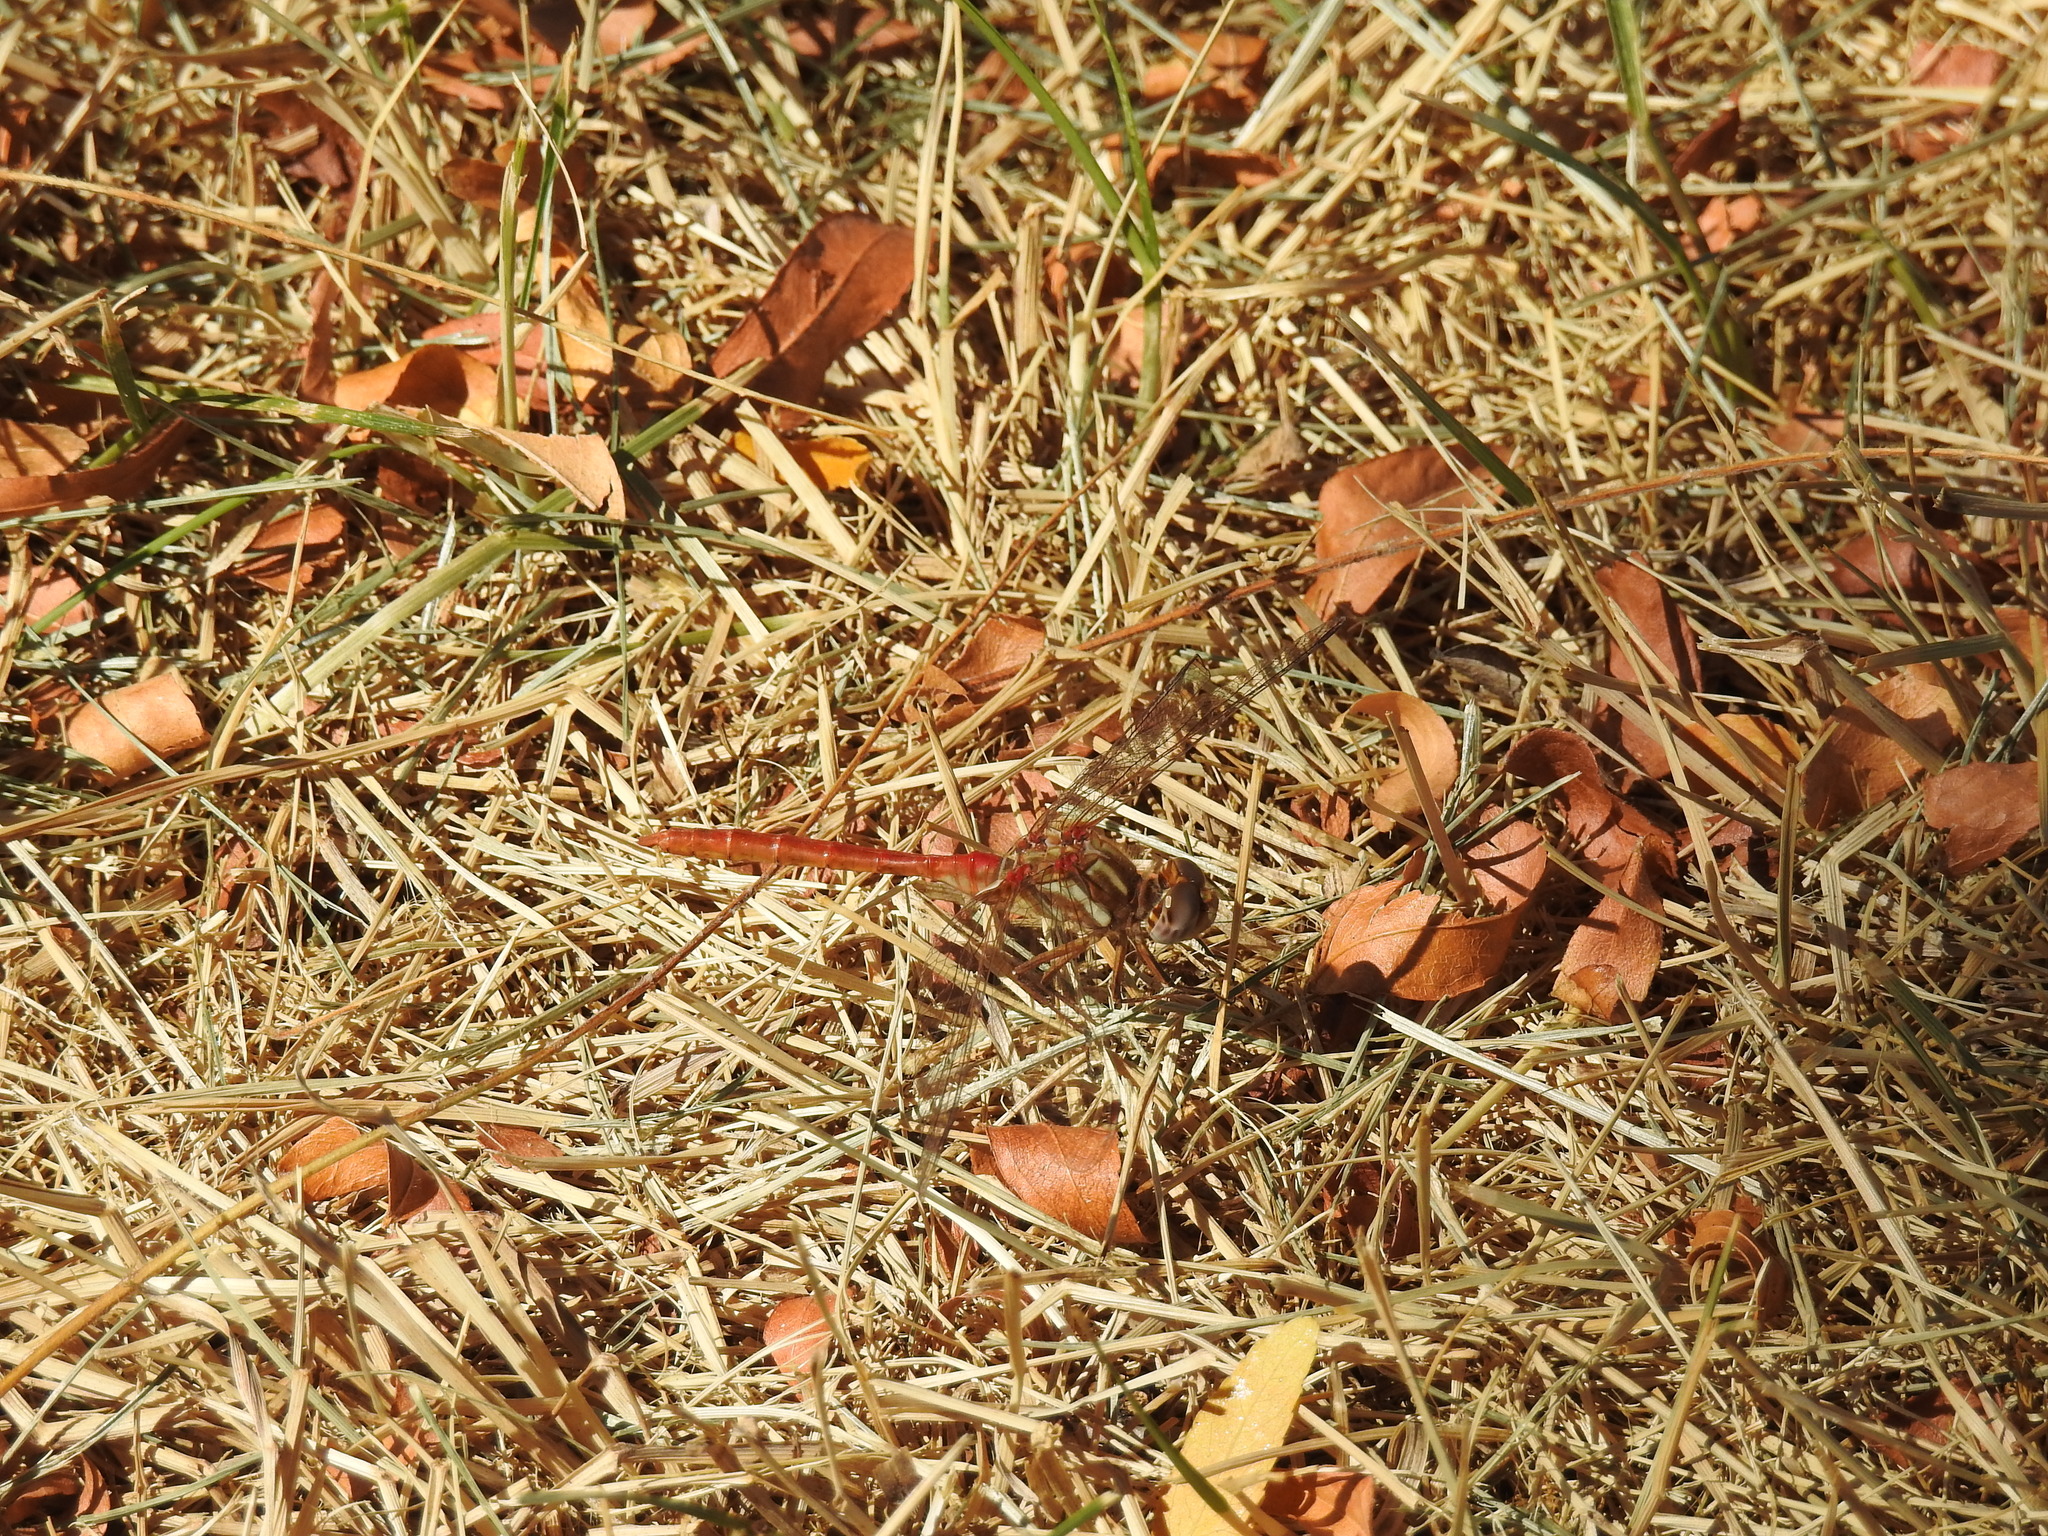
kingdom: Animalia
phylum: Arthropoda
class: Insecta
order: Odonata
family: Libellulidae
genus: Sympetrum
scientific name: Sympetrum pallipes
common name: Striped meadowhawk
